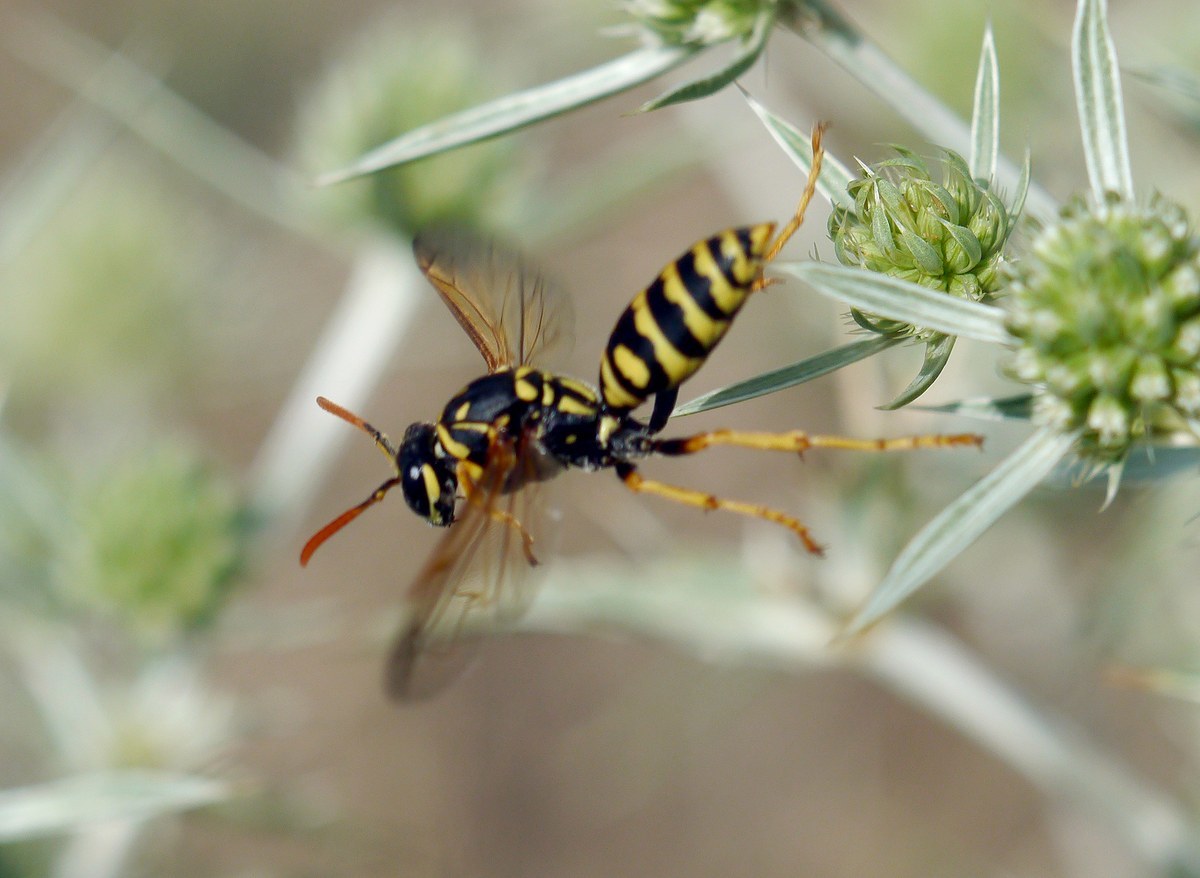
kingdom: Animalia
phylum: Arthropoda
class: Insecta
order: Hymenoptera
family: Eumenidae
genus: Polistes
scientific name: Polistes dominula
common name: Paper wasp
